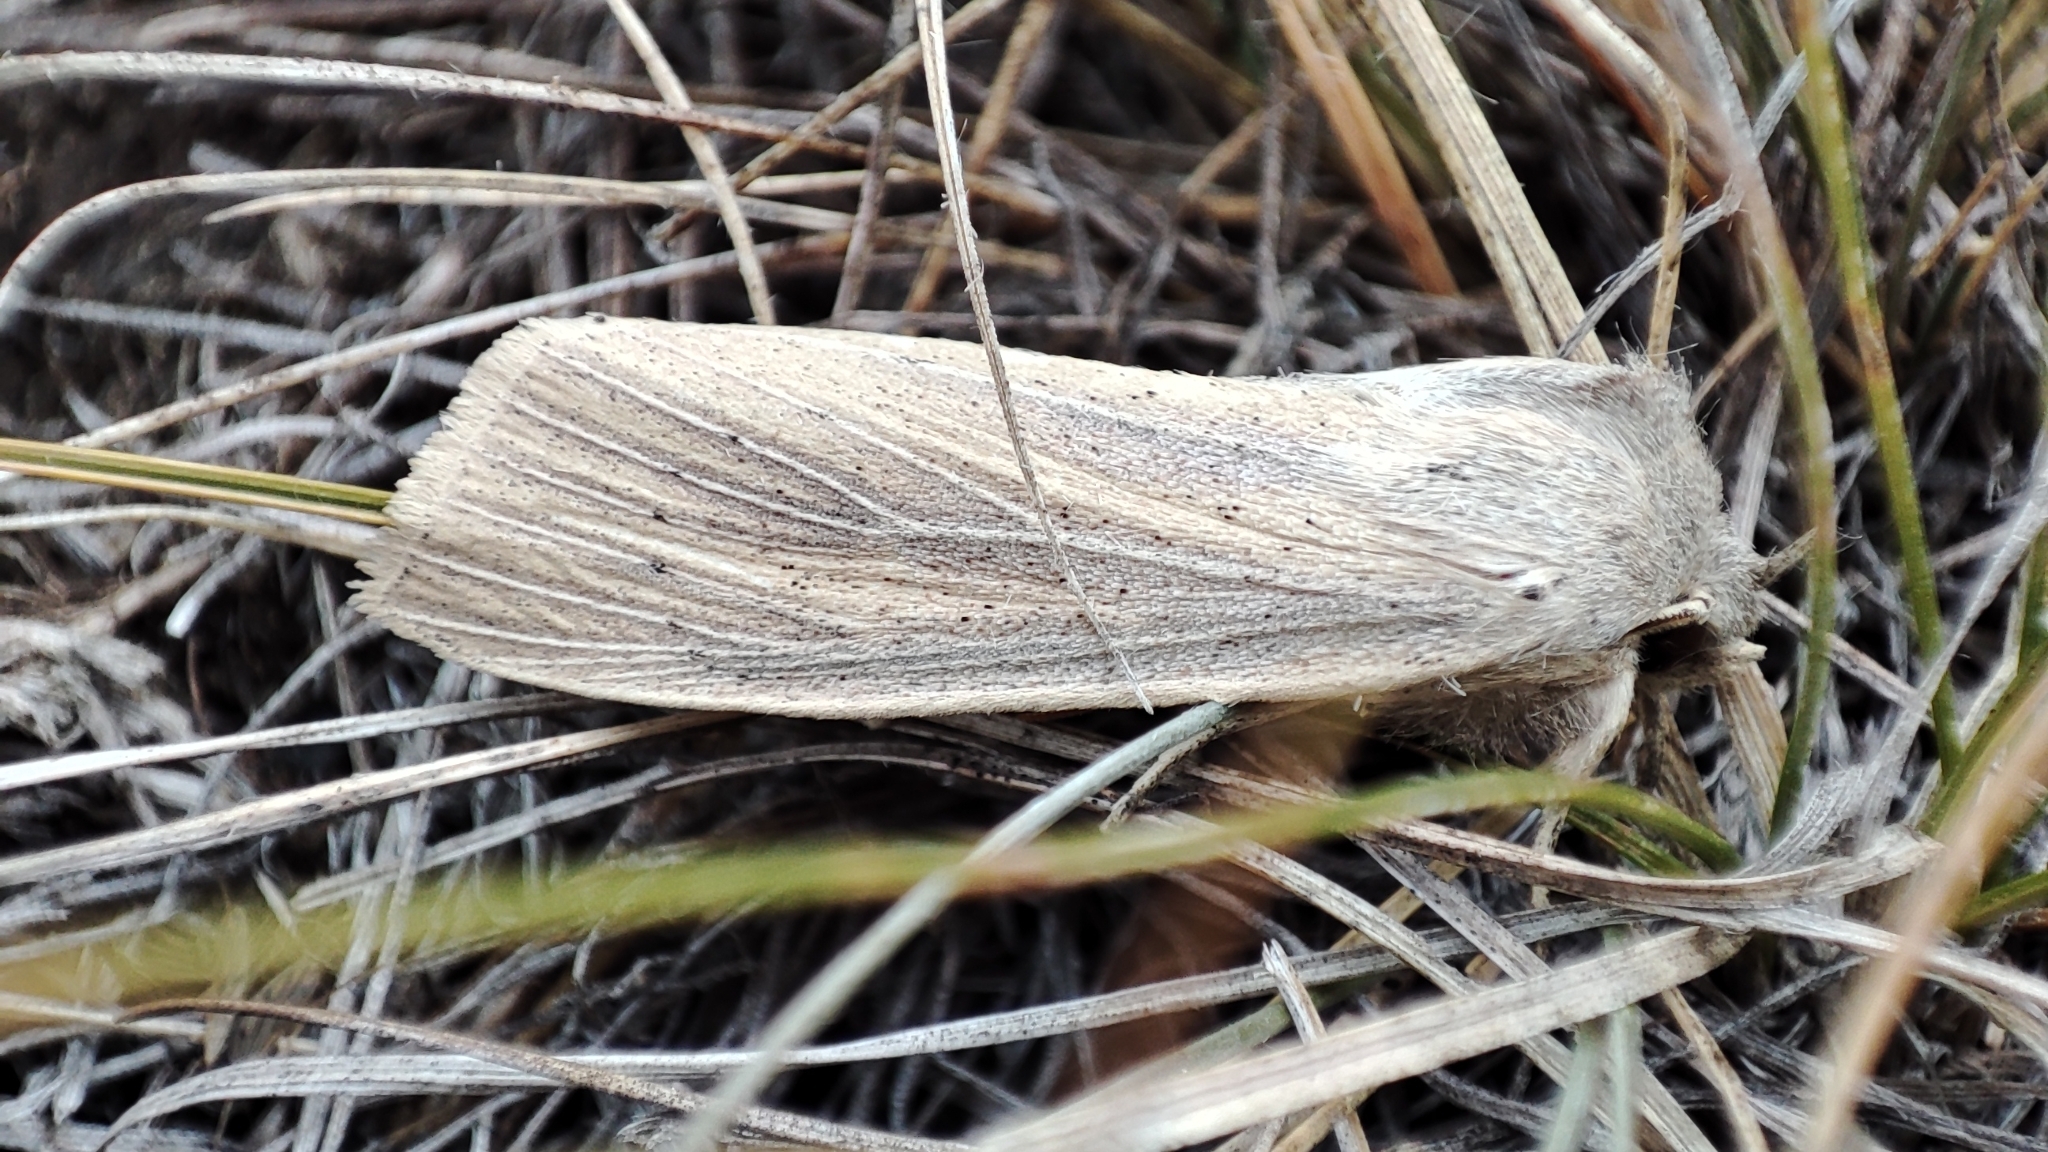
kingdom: Animalia
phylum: Arthropoda
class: Insecta
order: Lepidoptera
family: Noctuidae
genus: Rhizedra
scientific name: Rhizedra lutosa
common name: Large wainscot
